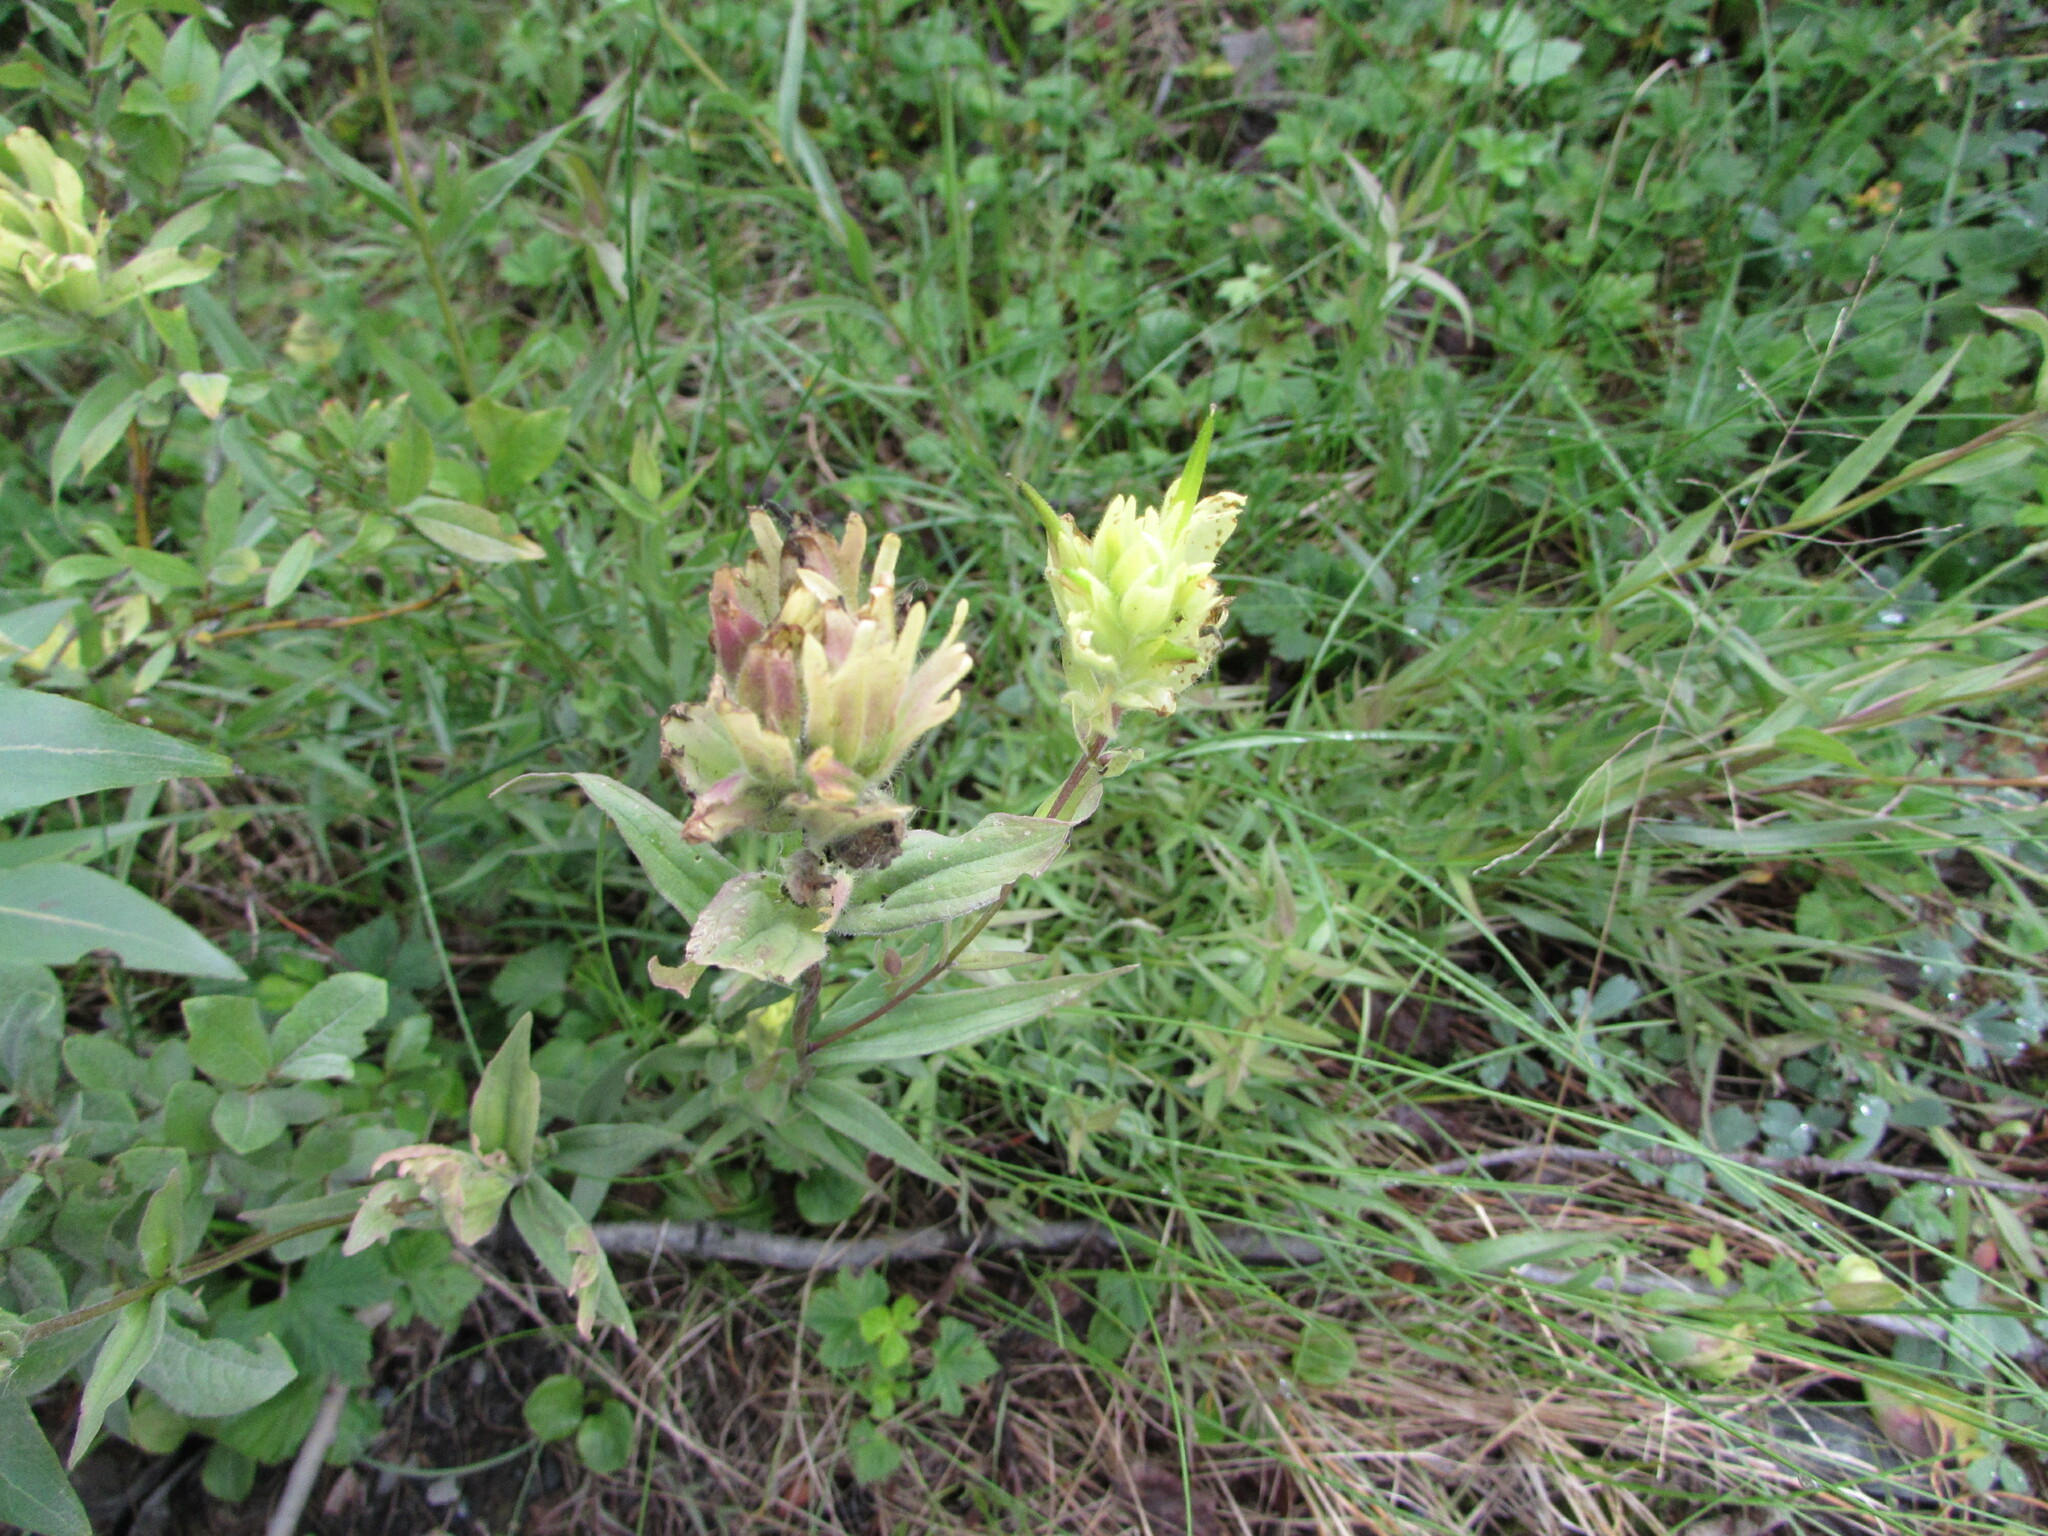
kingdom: Plantae
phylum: Tracheophyta
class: Magnoliopsida
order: Lamiales
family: Orobanchaceae
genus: Castilleja
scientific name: Castilleja unalaschcensis
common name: Unalaska paintbrush
